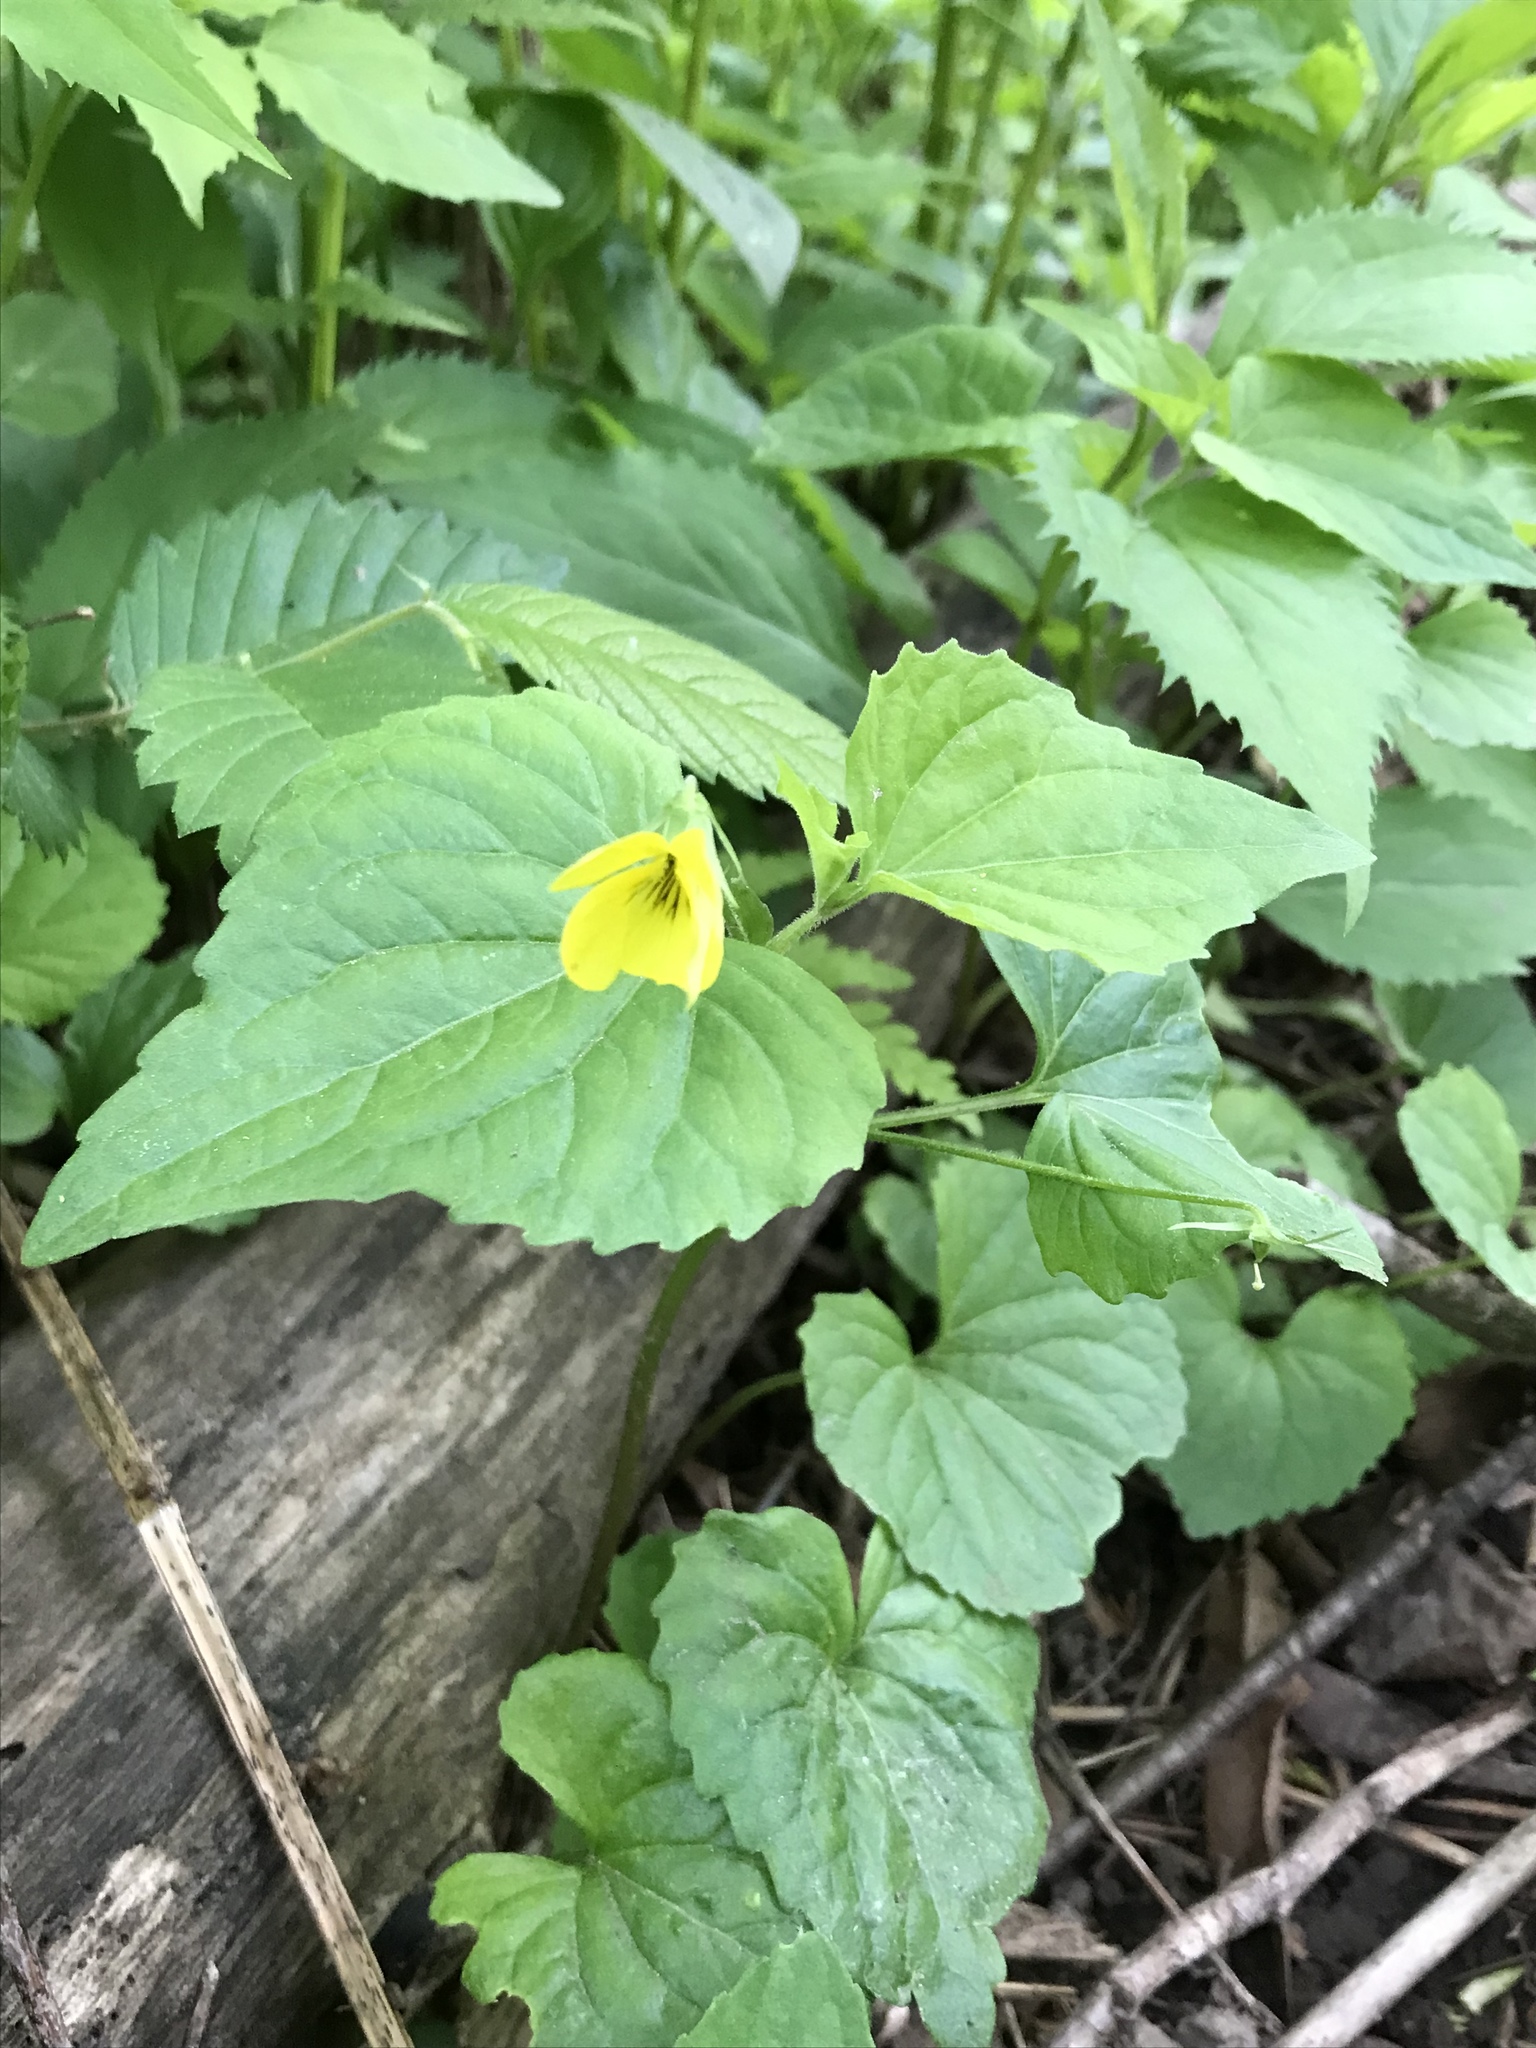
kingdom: Plantae
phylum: Tracheophyta
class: Magnoliopsida
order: Malpighiales
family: Violaceae
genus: Viola
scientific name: Viola eriocarpa
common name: Smooth yellow violet
